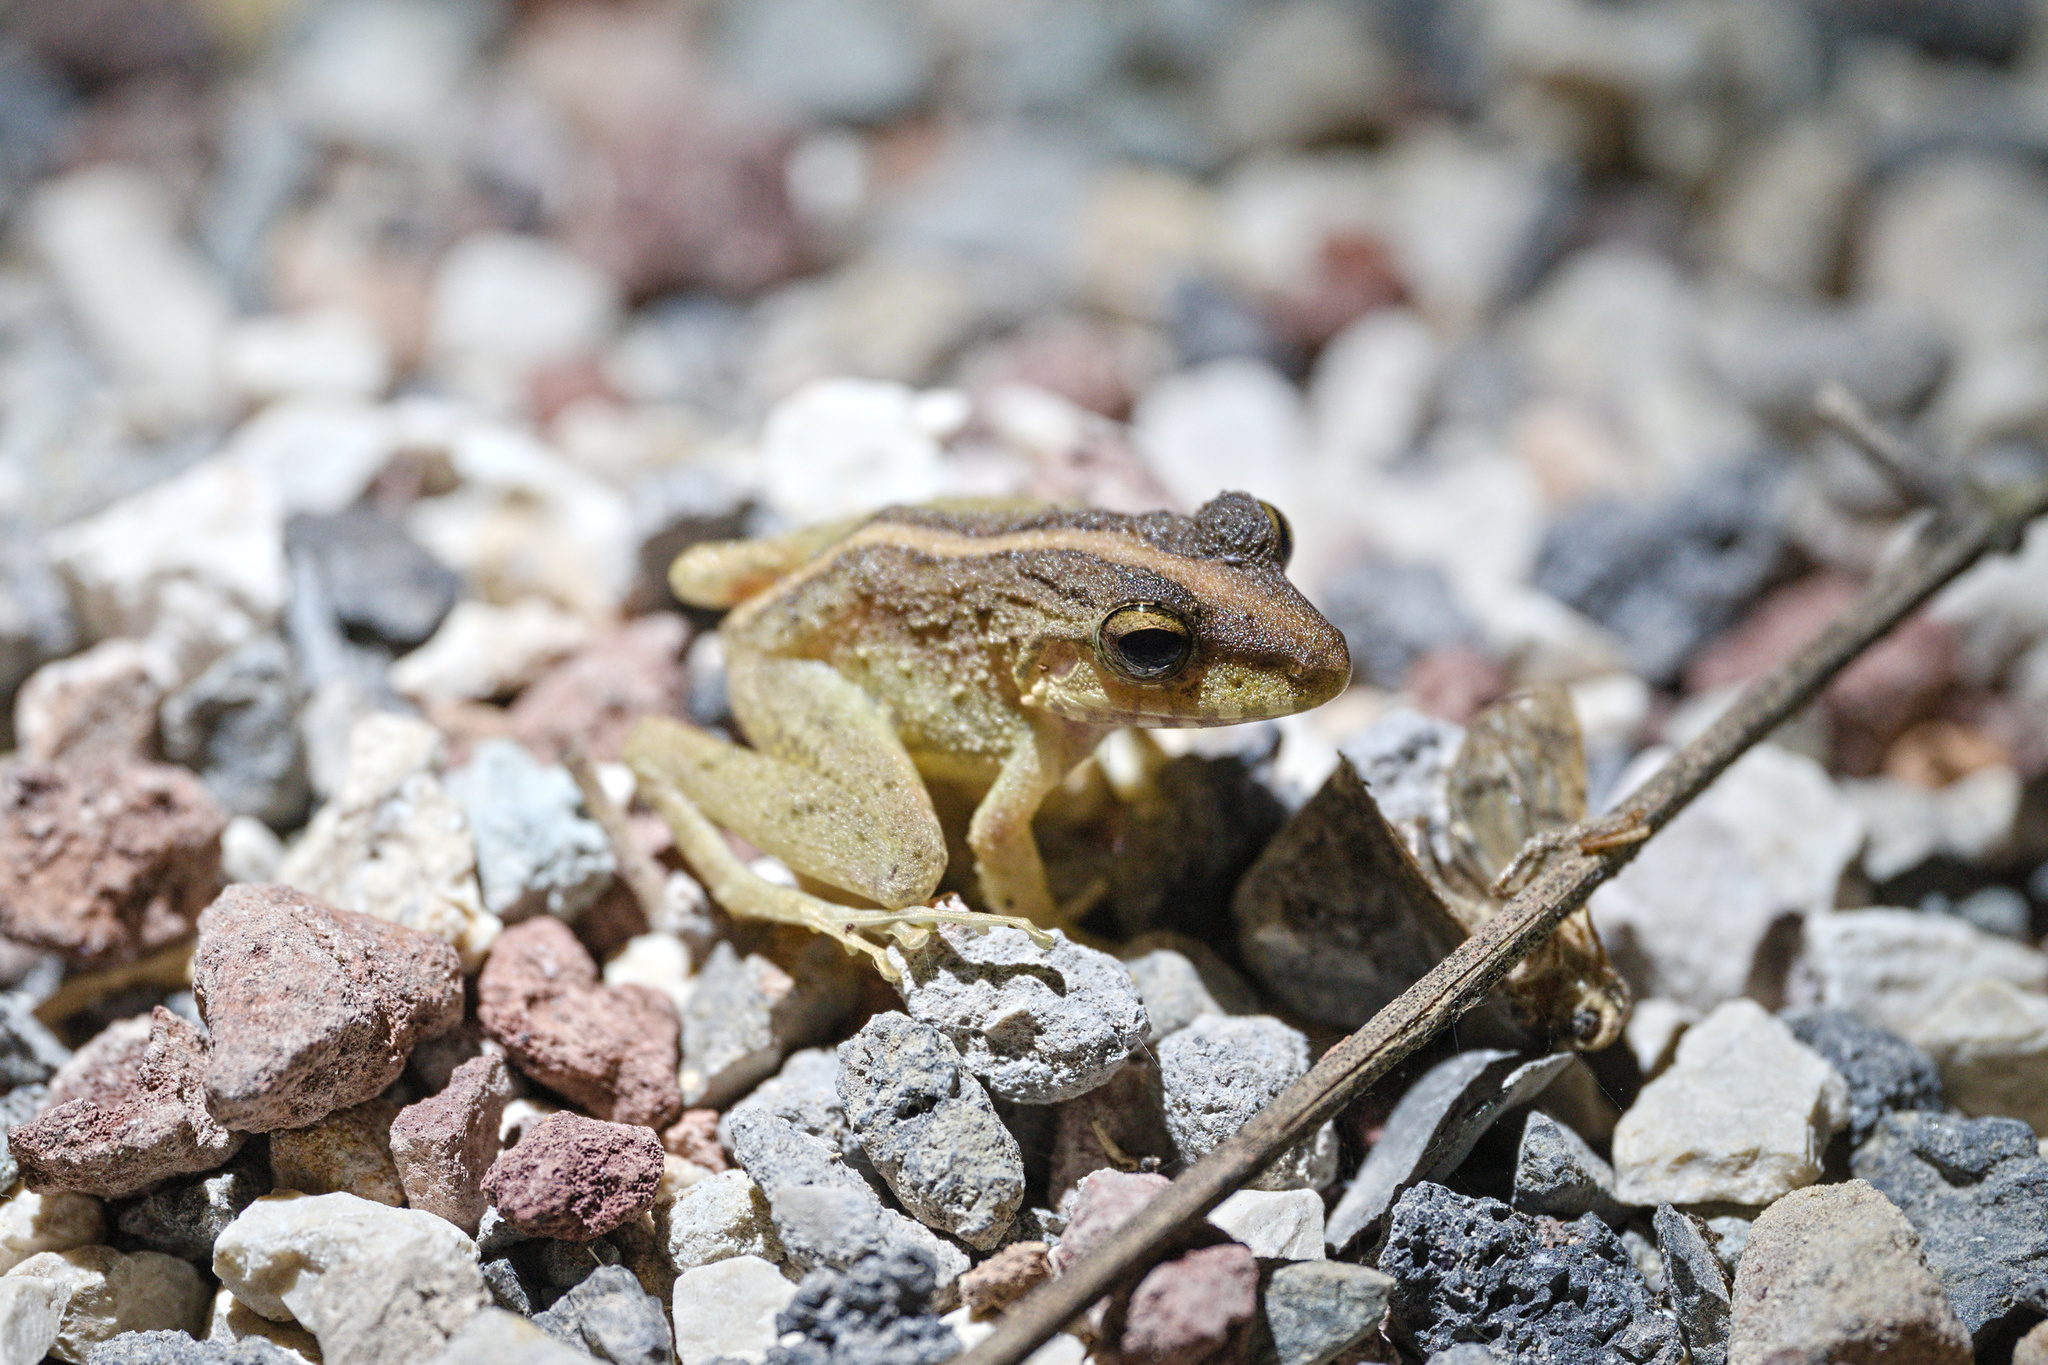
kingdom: Animalia
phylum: Chordata
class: Amphibia
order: Anura
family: Craugastoridae
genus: Craugastor
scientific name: Craugastor fitzingeri
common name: Fitzinger's robber frog
